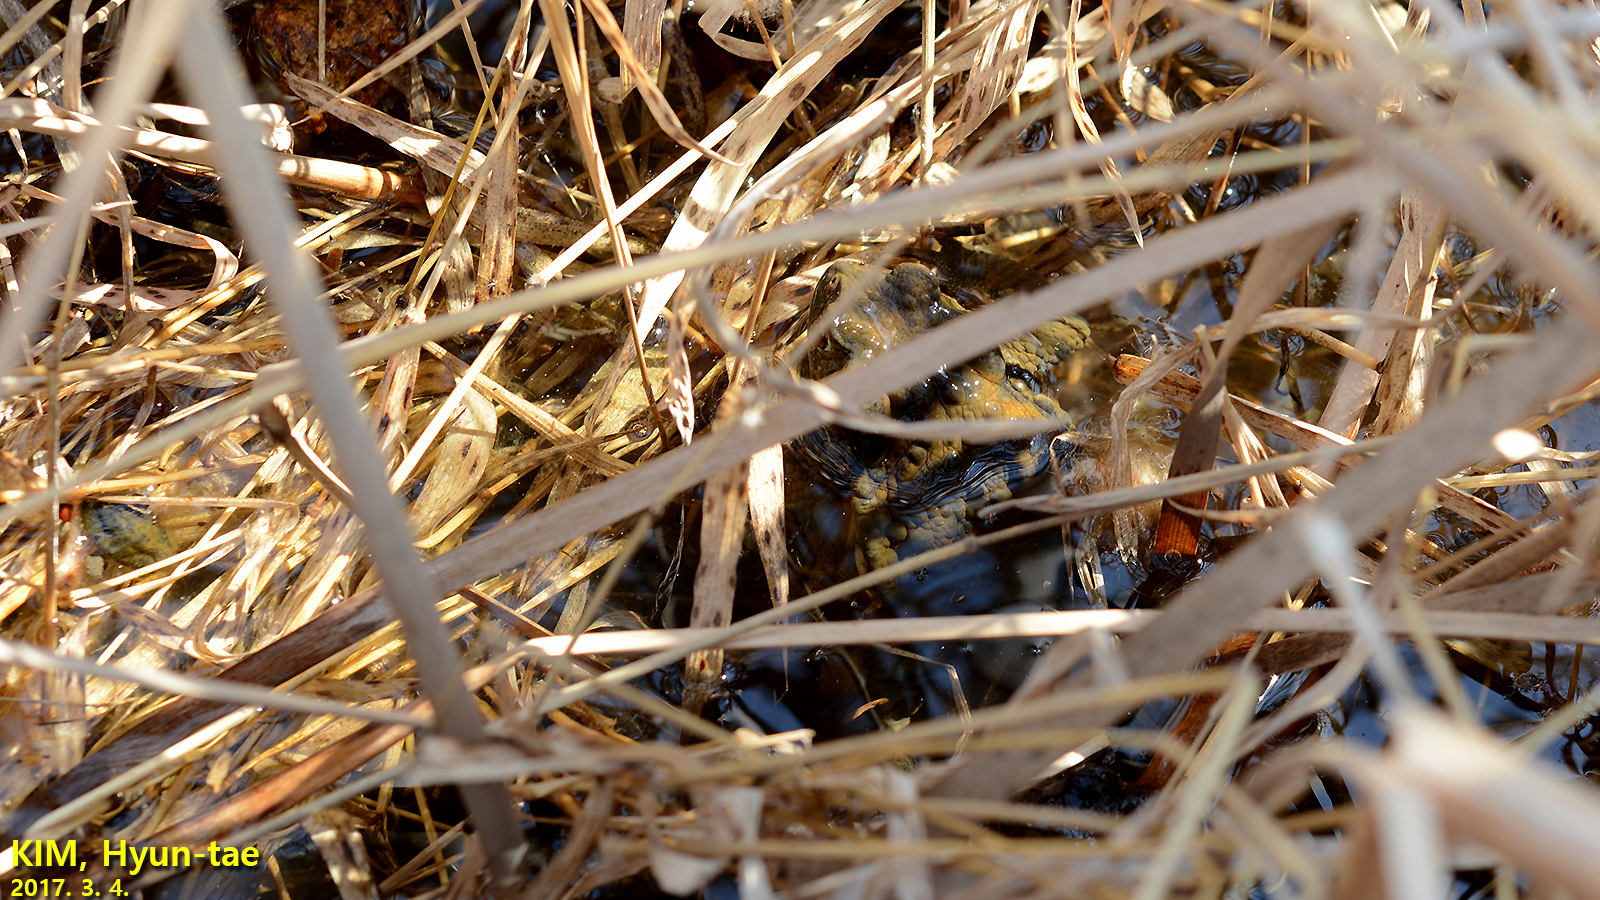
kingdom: Animalia
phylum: Chordata
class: Amphibia
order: Anura
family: Bufonidae
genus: Bufo
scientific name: Bufo gargarizans
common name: Asiatic toad
